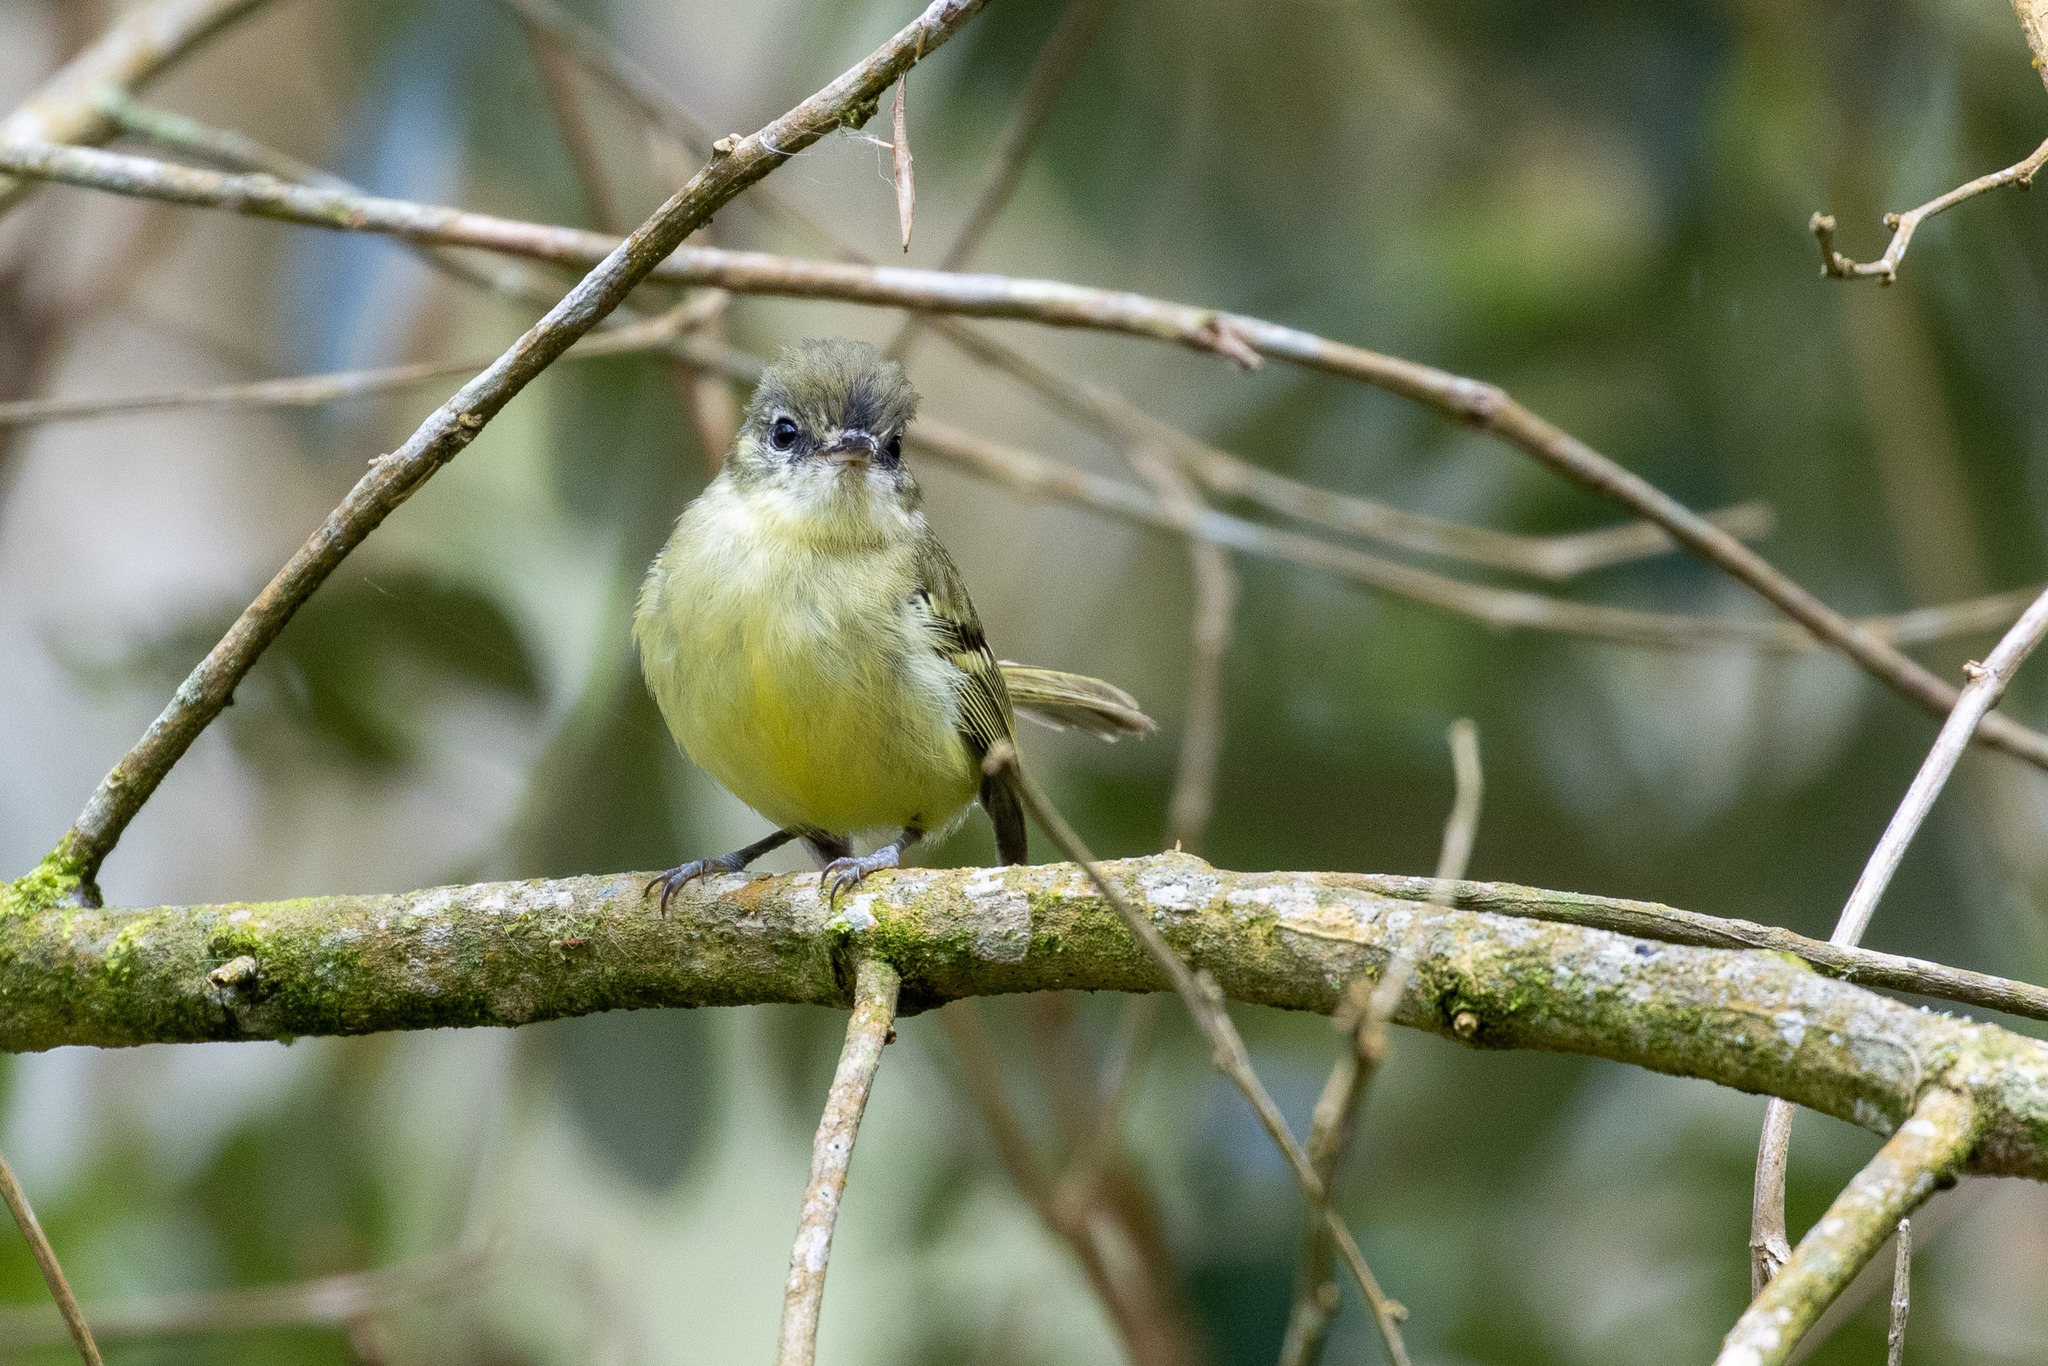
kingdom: Animalia
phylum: Chordata
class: Aves
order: Passeriformes
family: Tyrannidae
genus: Phylloscartes
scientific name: Phylloscartes ventralis
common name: Mottle-cheeked tyrannulet
